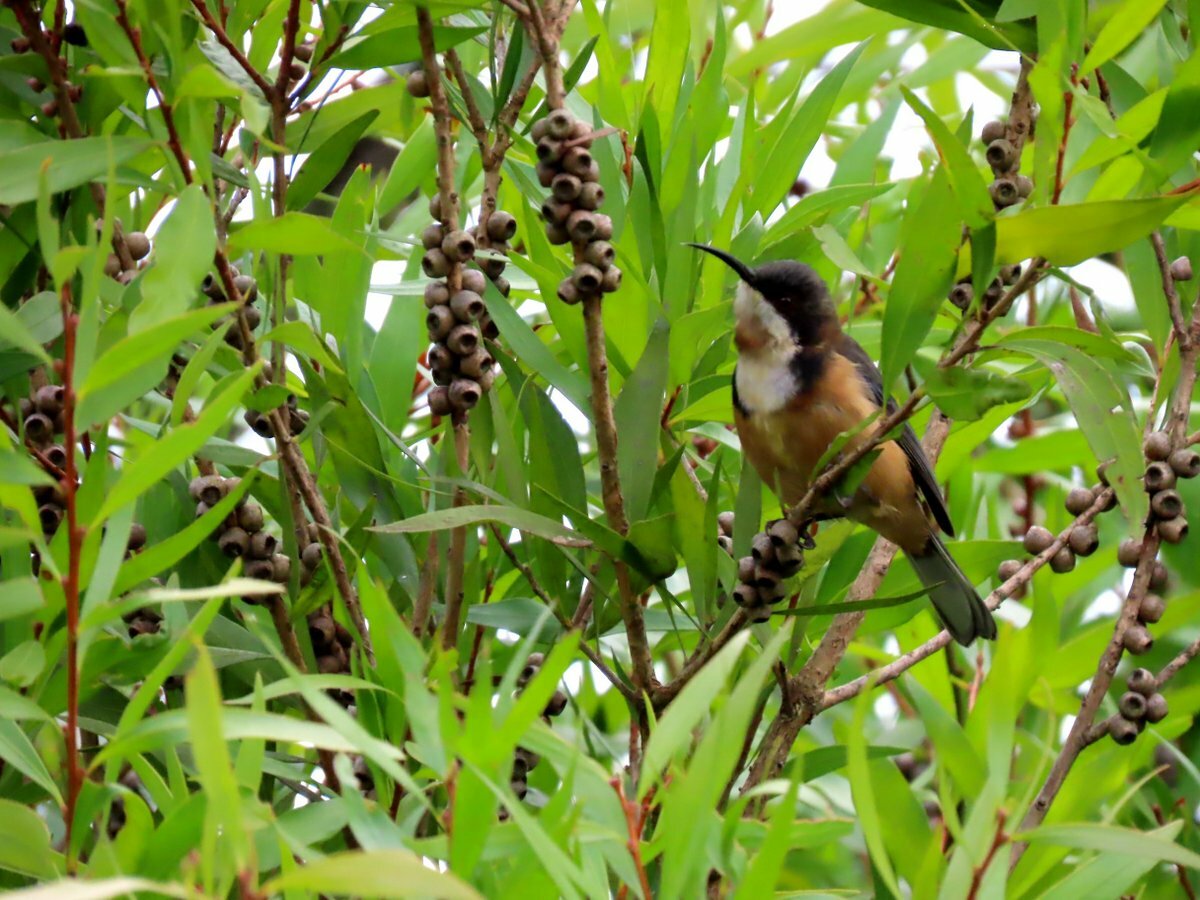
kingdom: Animalia
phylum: Chordata
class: Aves
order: Passeriformes
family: Meliphagidae
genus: Acanthorhynchus
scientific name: Acanthorhynchus tenuirostris
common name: Eastern spinebill
